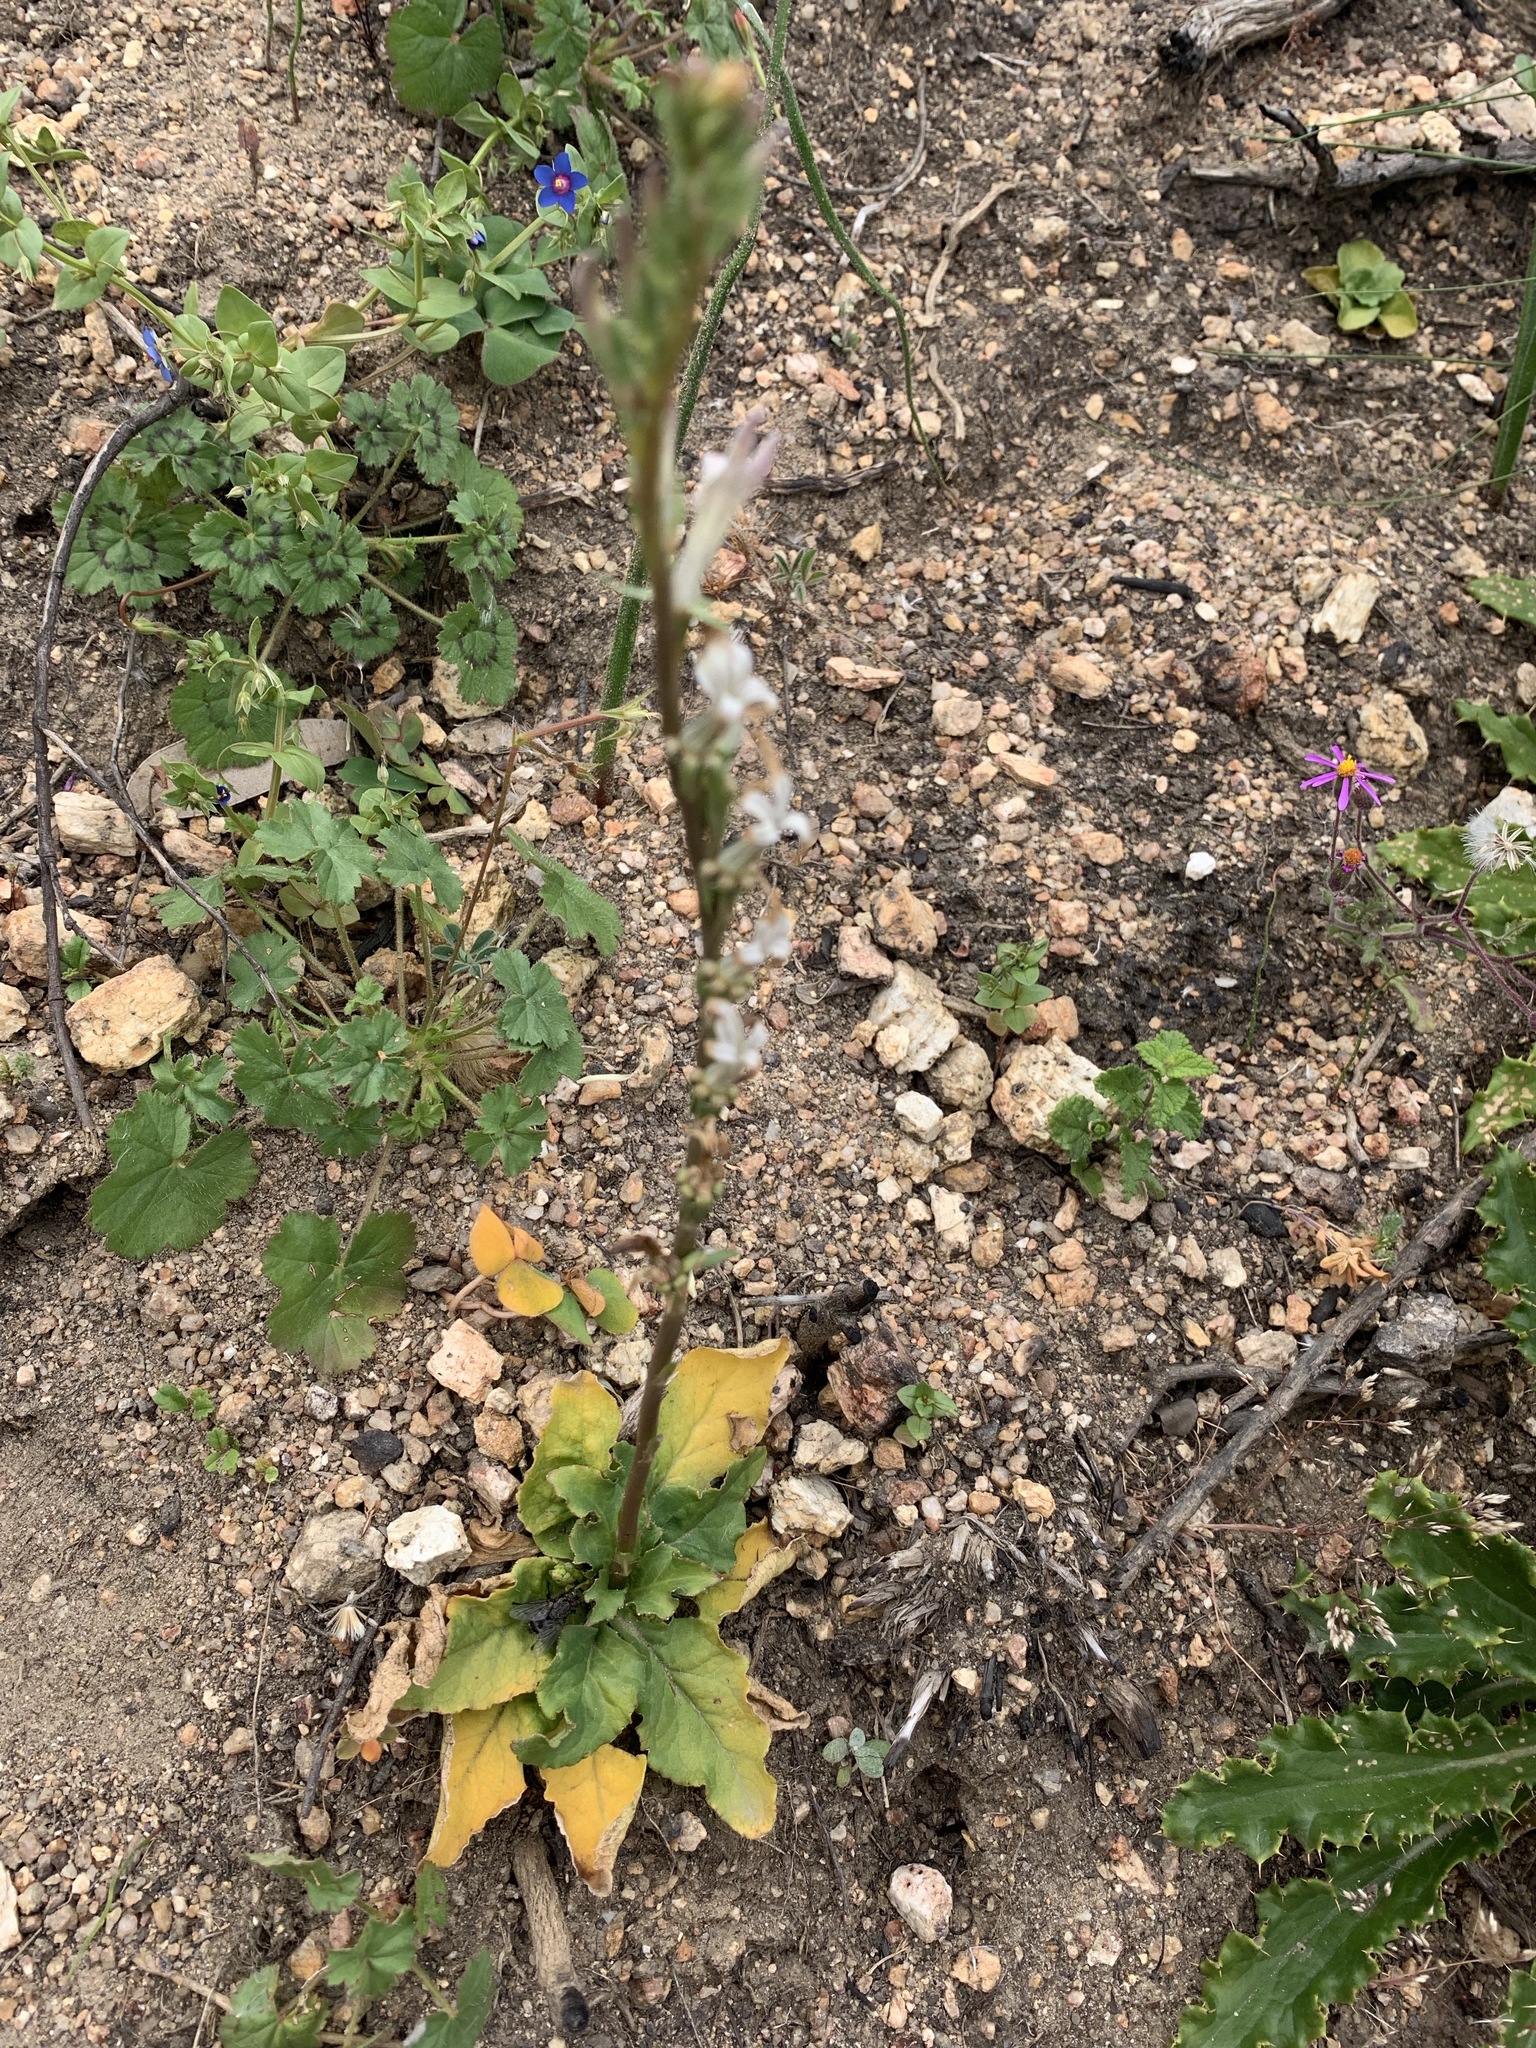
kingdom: Plantae
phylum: Tracheophyta
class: Magnoliopsida
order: Asterales
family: Campanulaceae
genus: Cyphia
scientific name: Cyphia phyteuma
